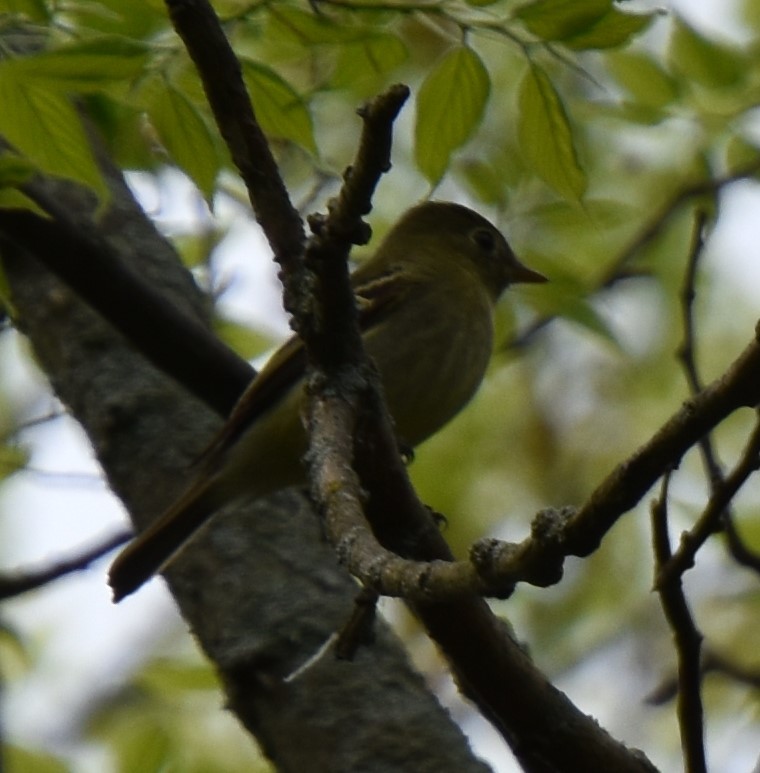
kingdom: Animalia
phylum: Chordata
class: Aves
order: Passeriformes
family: Tyrannidae
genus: Empidonax
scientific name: Empidonax virescens
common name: Acadian flycatcher
